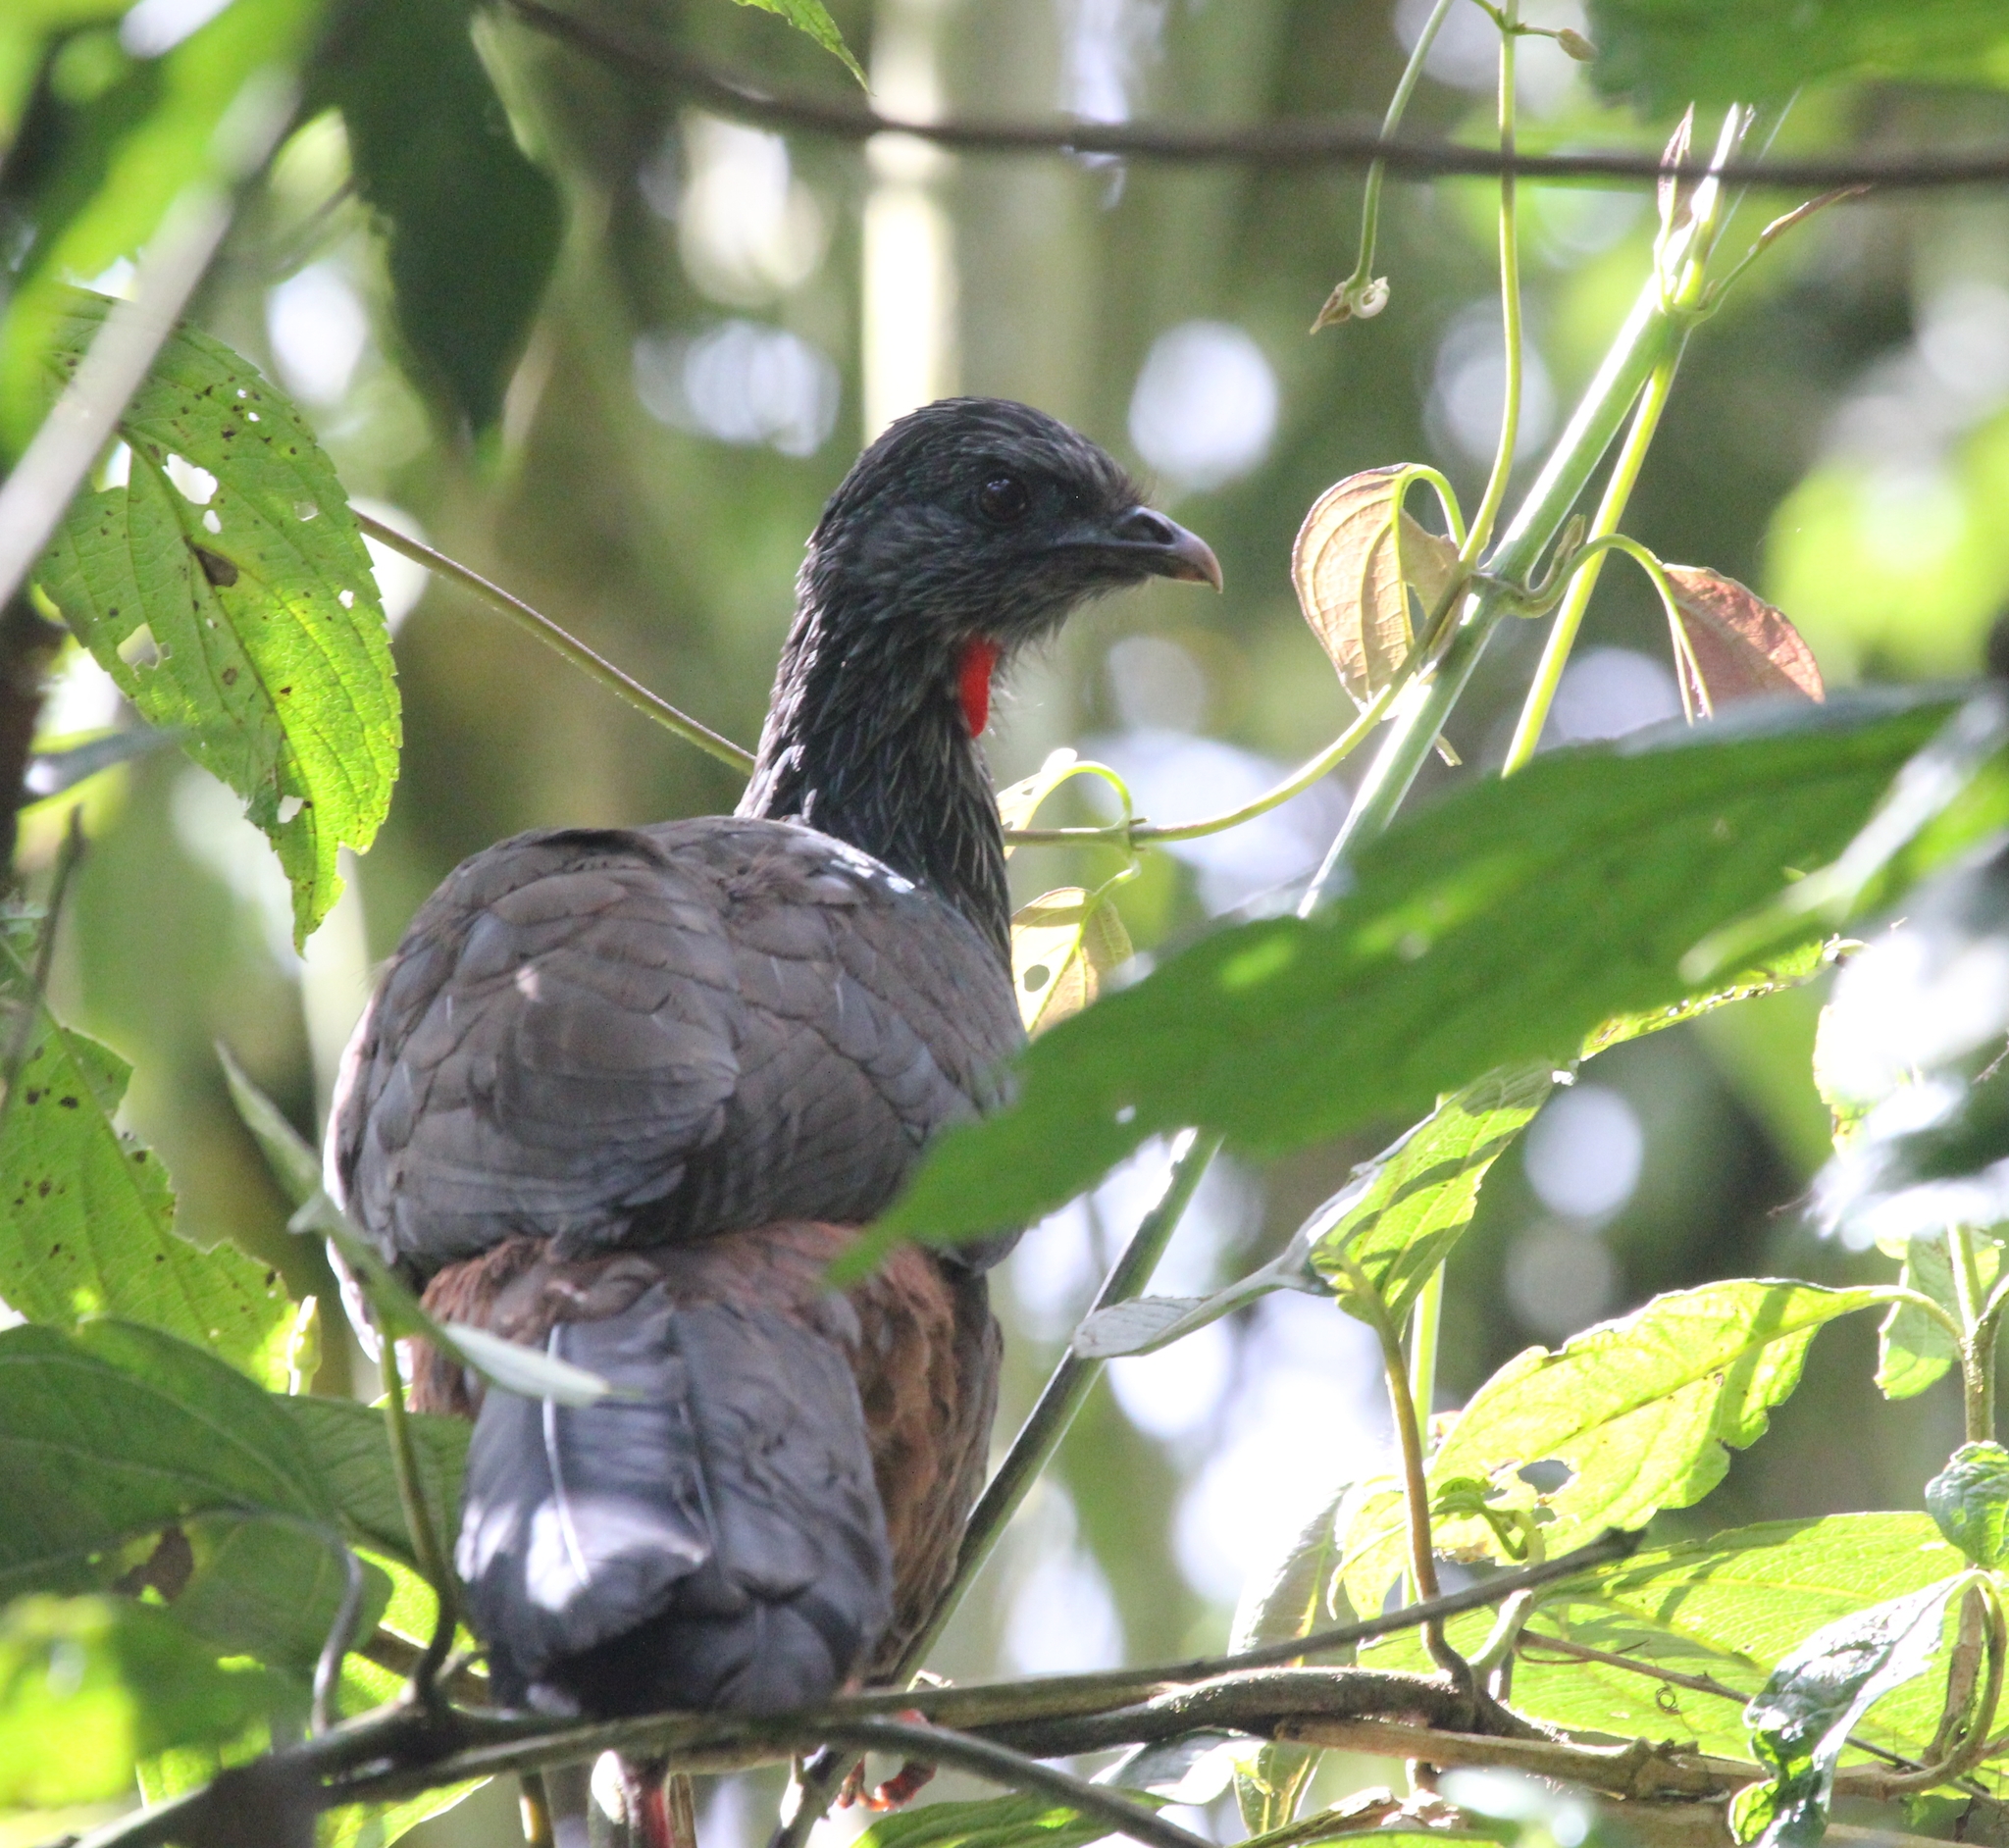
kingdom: Animalia
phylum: Chordata
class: Aves
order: Galliformes
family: Cracidae
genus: Penelope
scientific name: Penelope montagnii
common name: Andean guan
